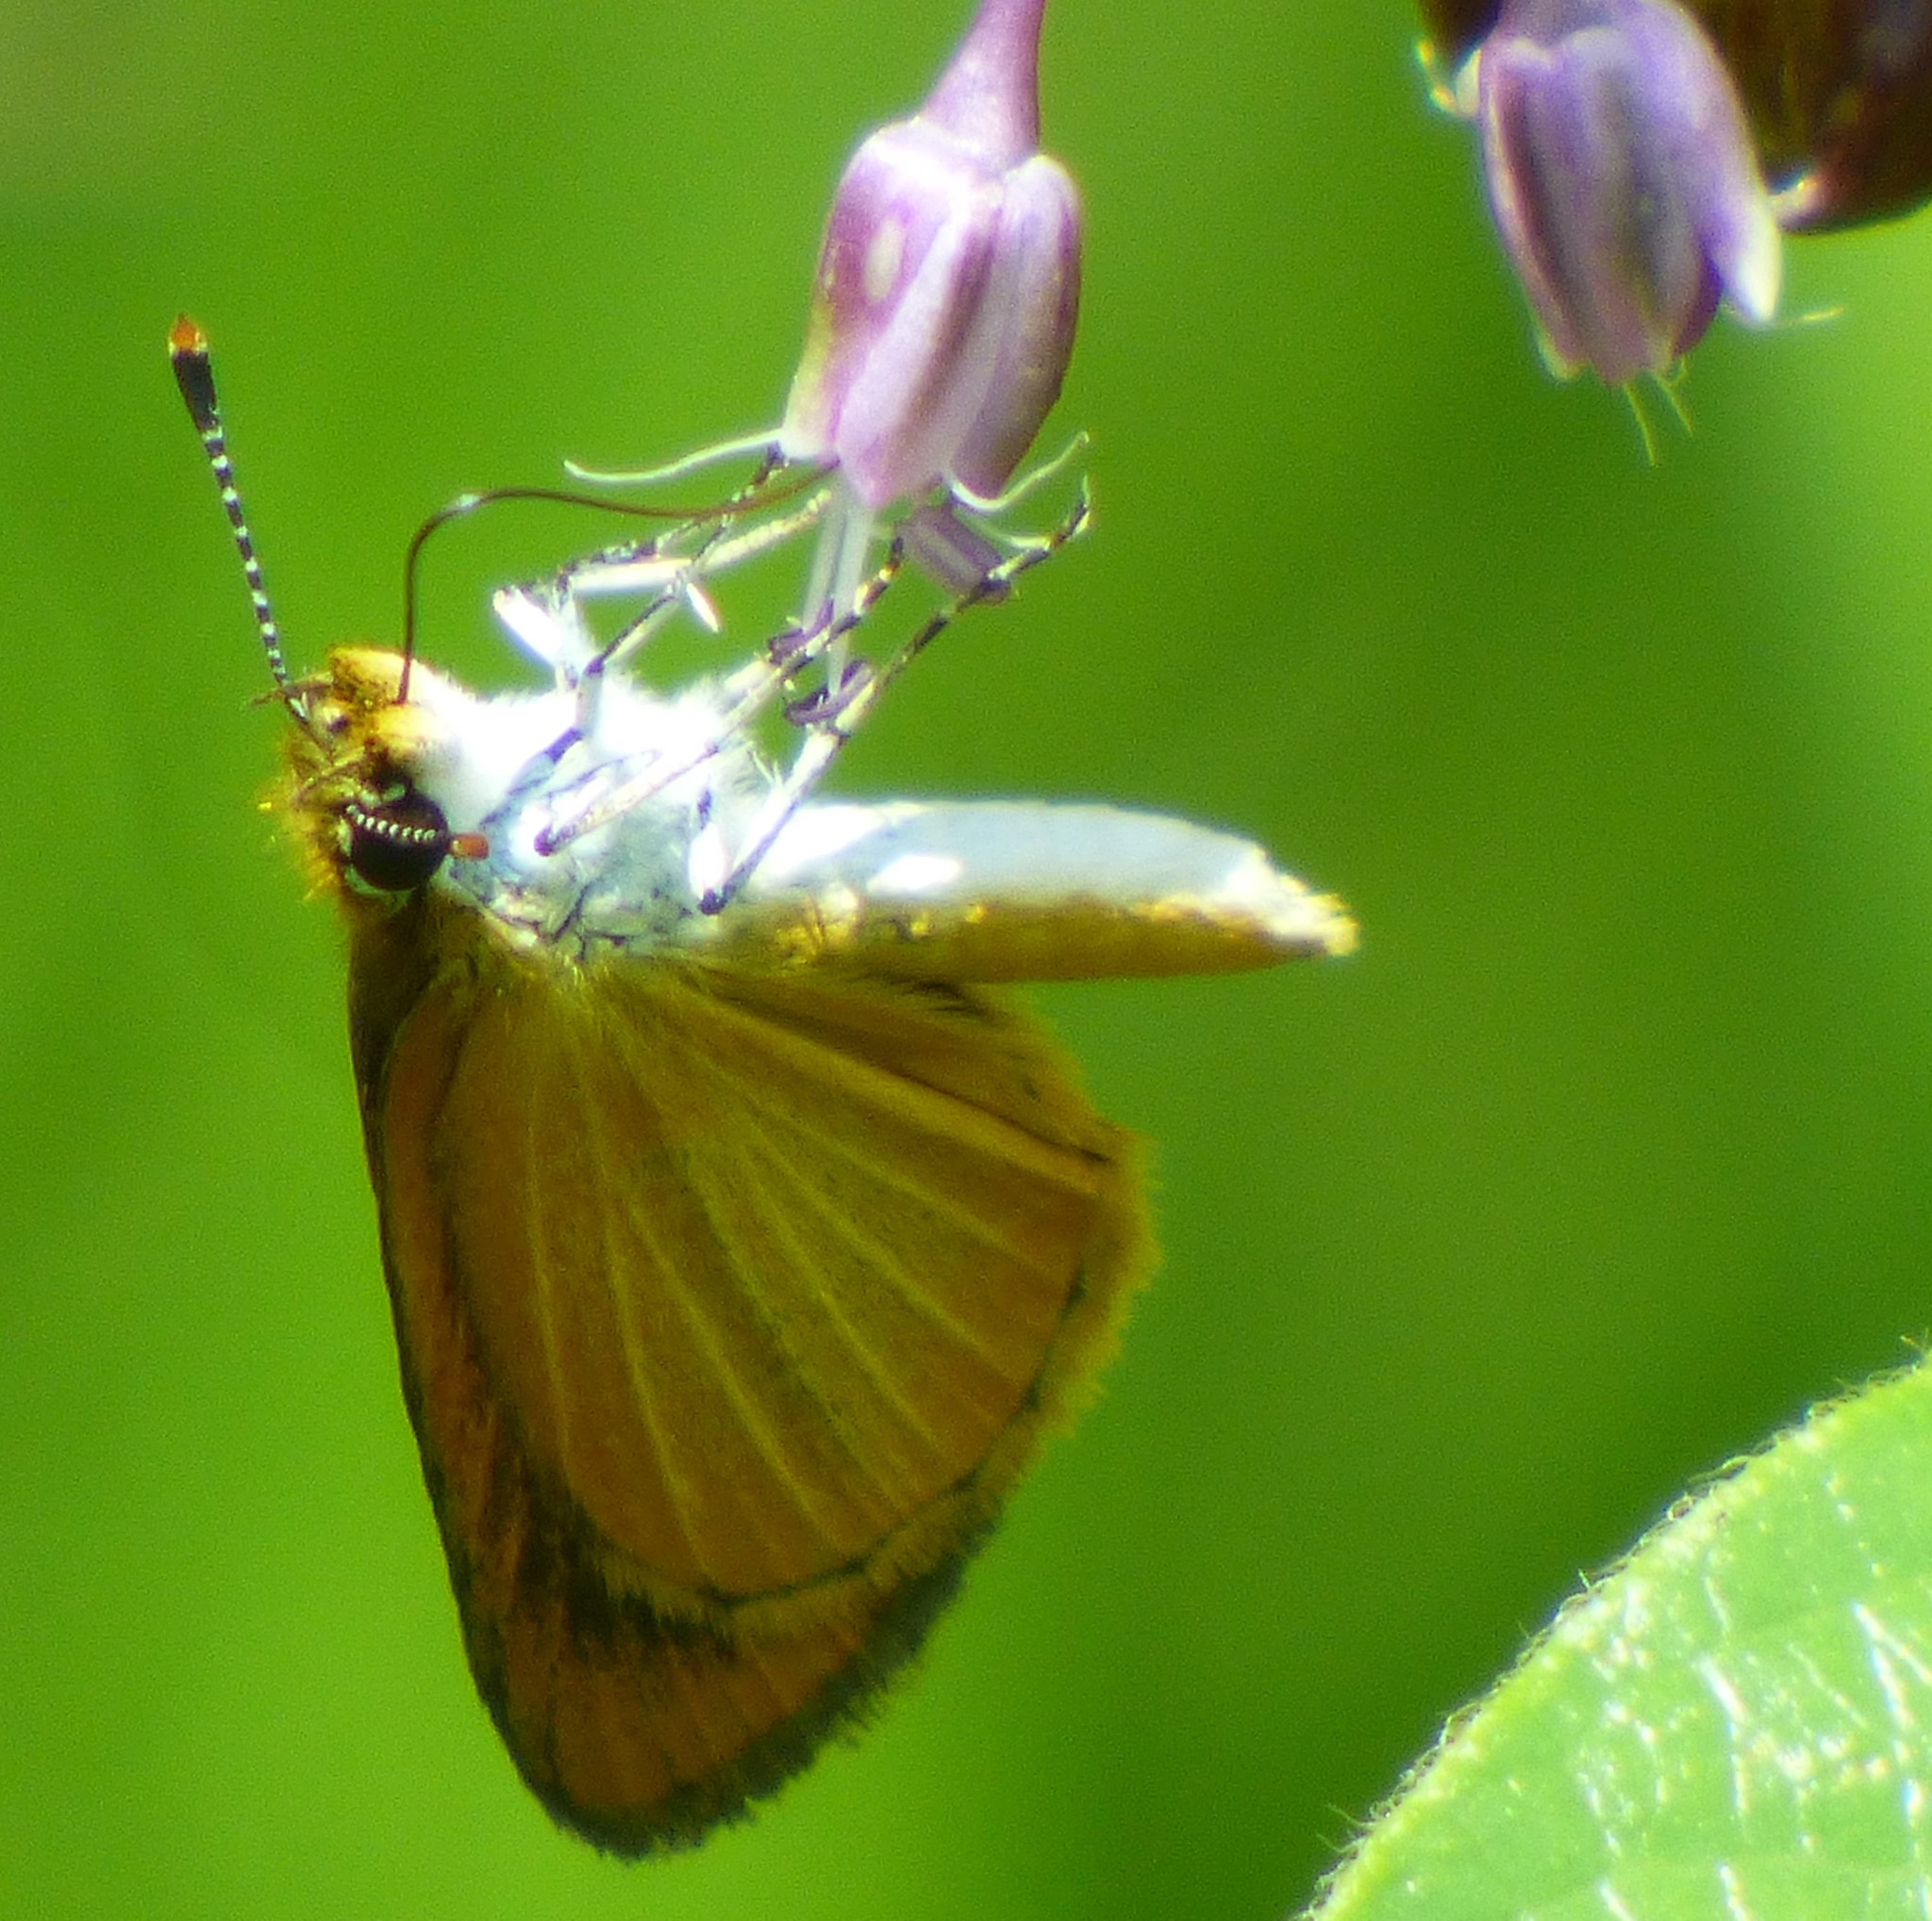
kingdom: Animalia
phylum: Arthropoda
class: Insecta
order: Lepidoptera
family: Hesperiidae
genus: Ancyloxypha
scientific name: Ancyloxypha numitor
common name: Least skipper
